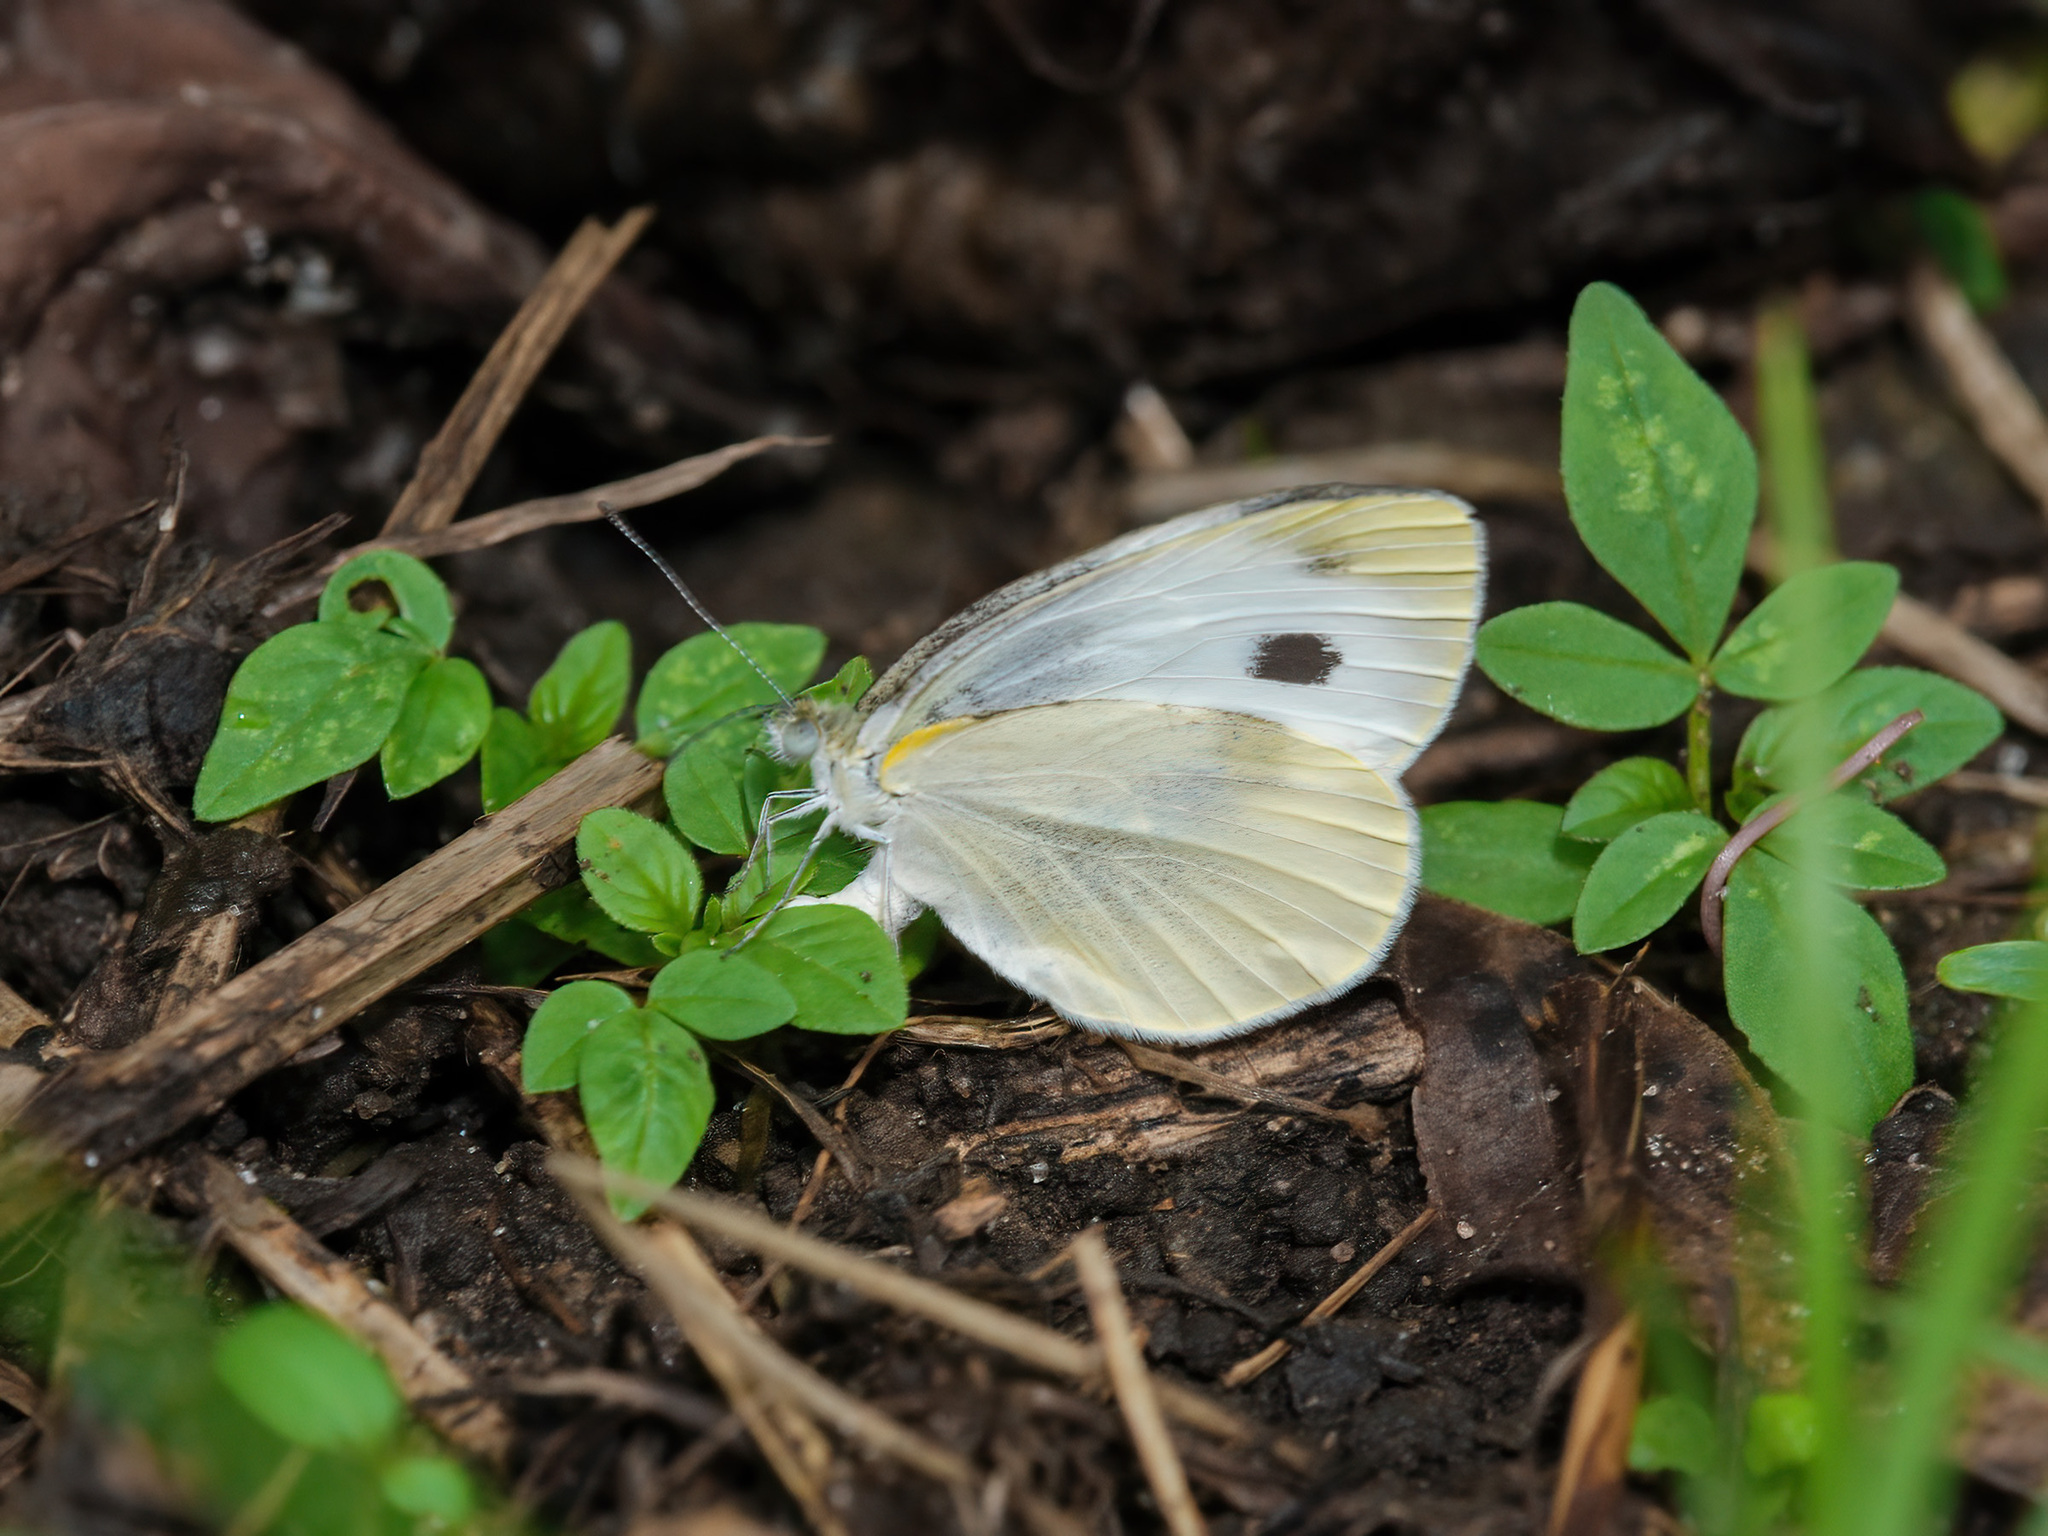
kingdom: Animalia
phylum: Arthropoda
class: Insecta
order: Lepidoptera
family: Pieridae
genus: Pieris
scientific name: Pieris canidia
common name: Indian cabbage white
